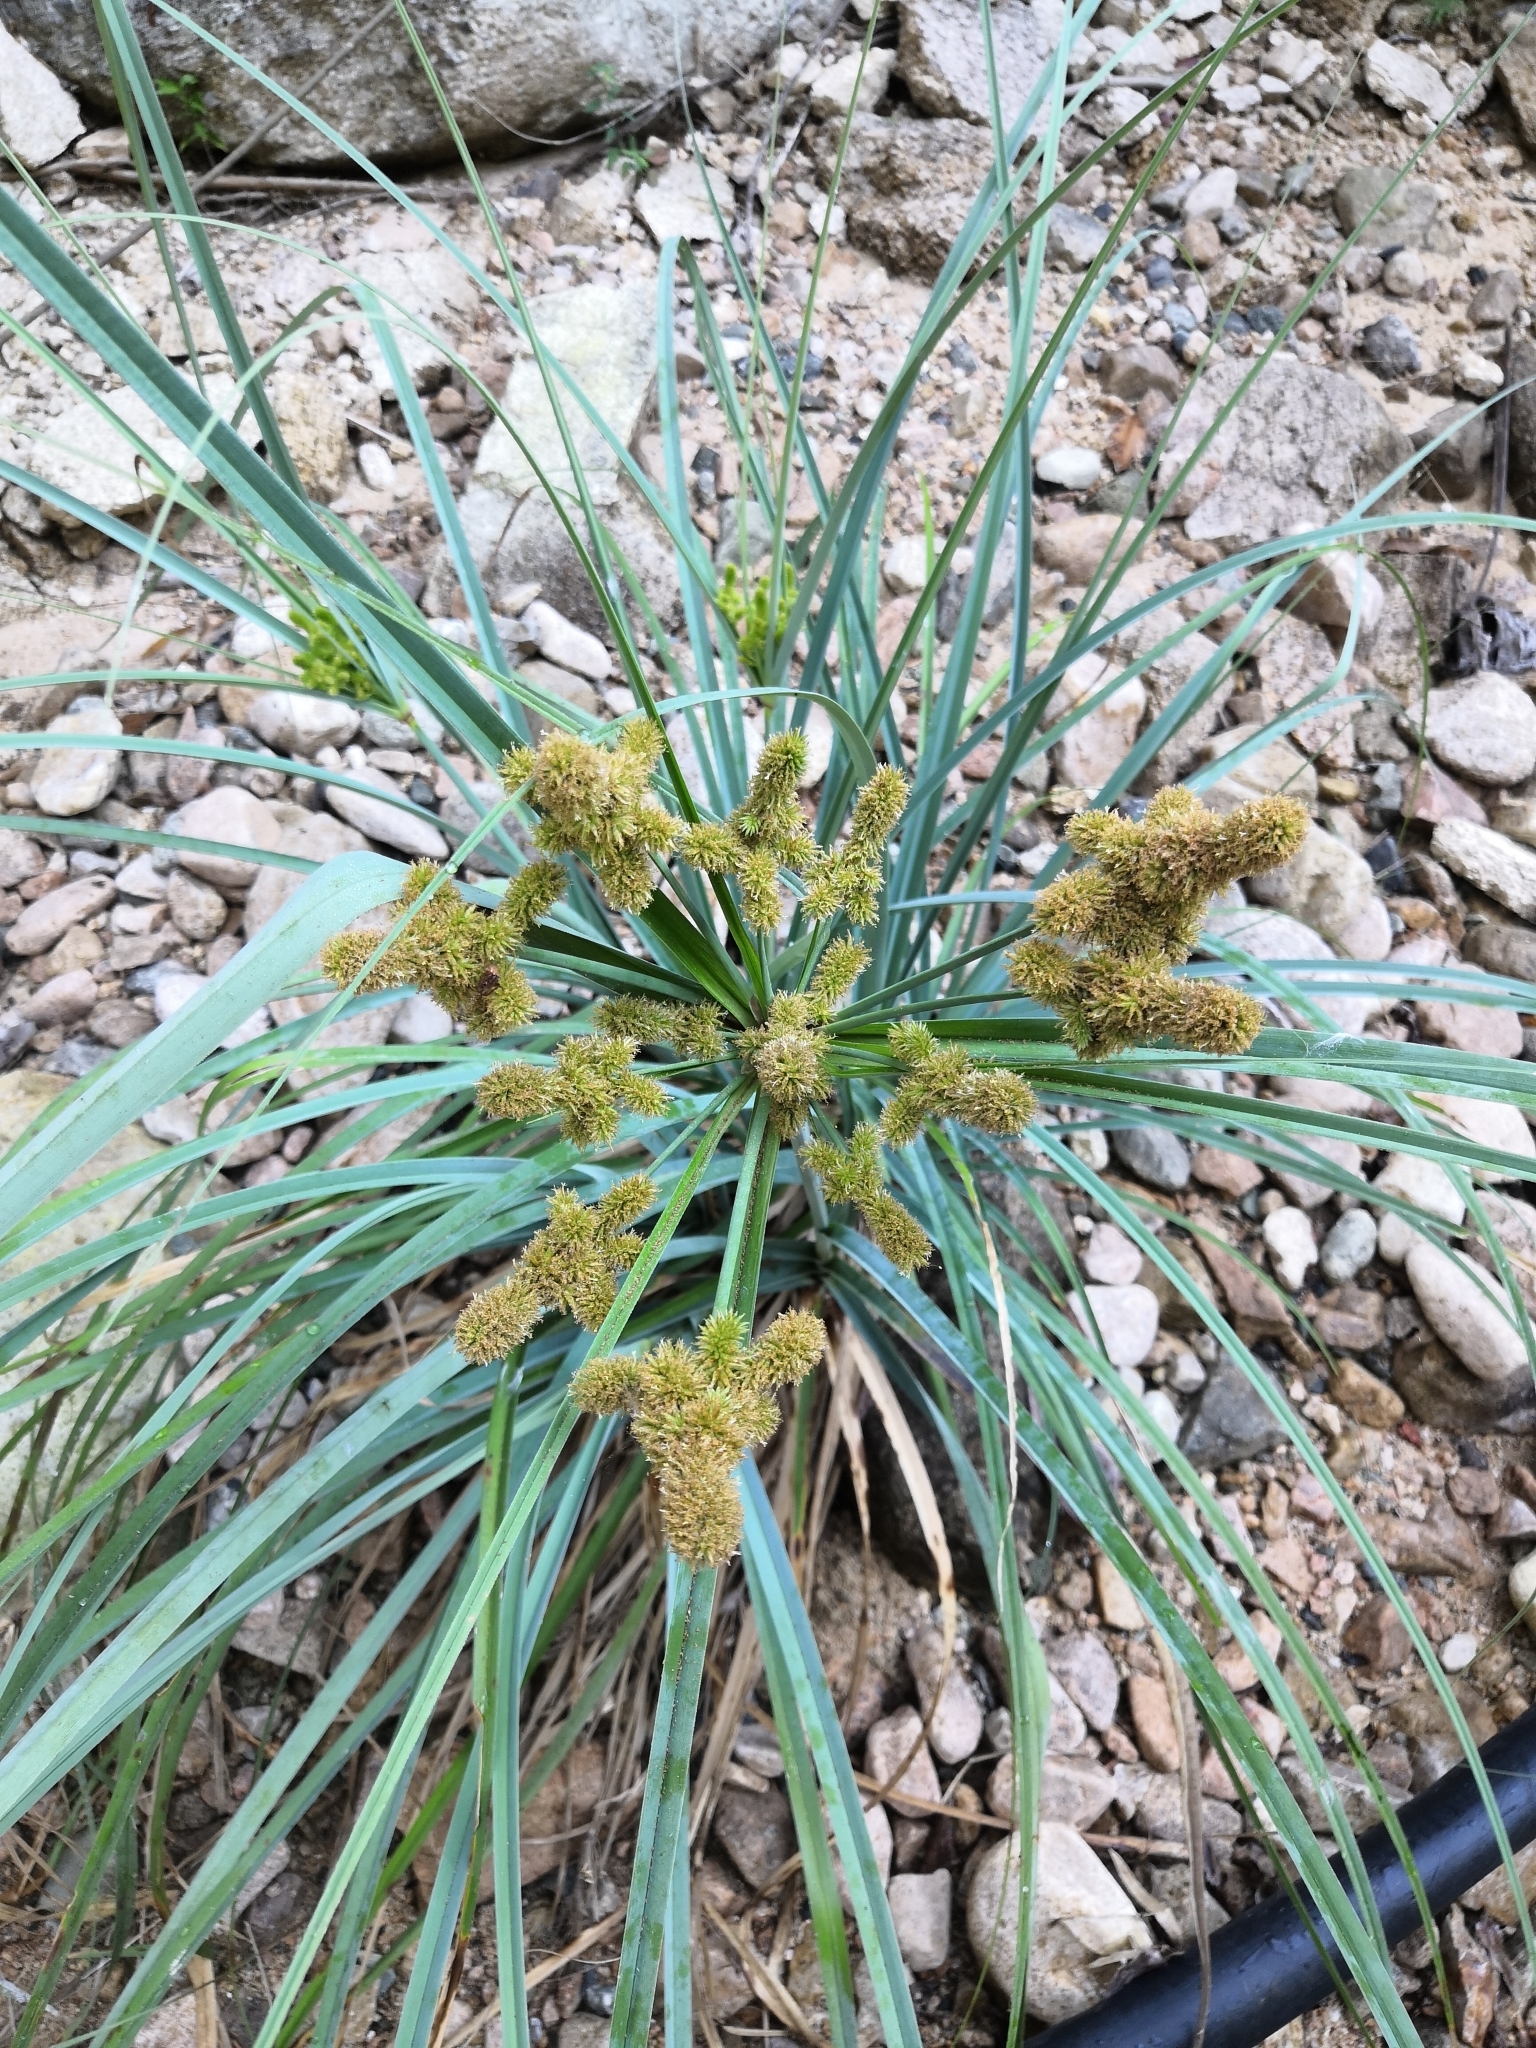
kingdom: Plantae
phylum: Tracheophyta
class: Liliopsida
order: Poales
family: Cyperaceae
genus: Cyperus
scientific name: Cyperus ligularis
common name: Swamp flat sedge
